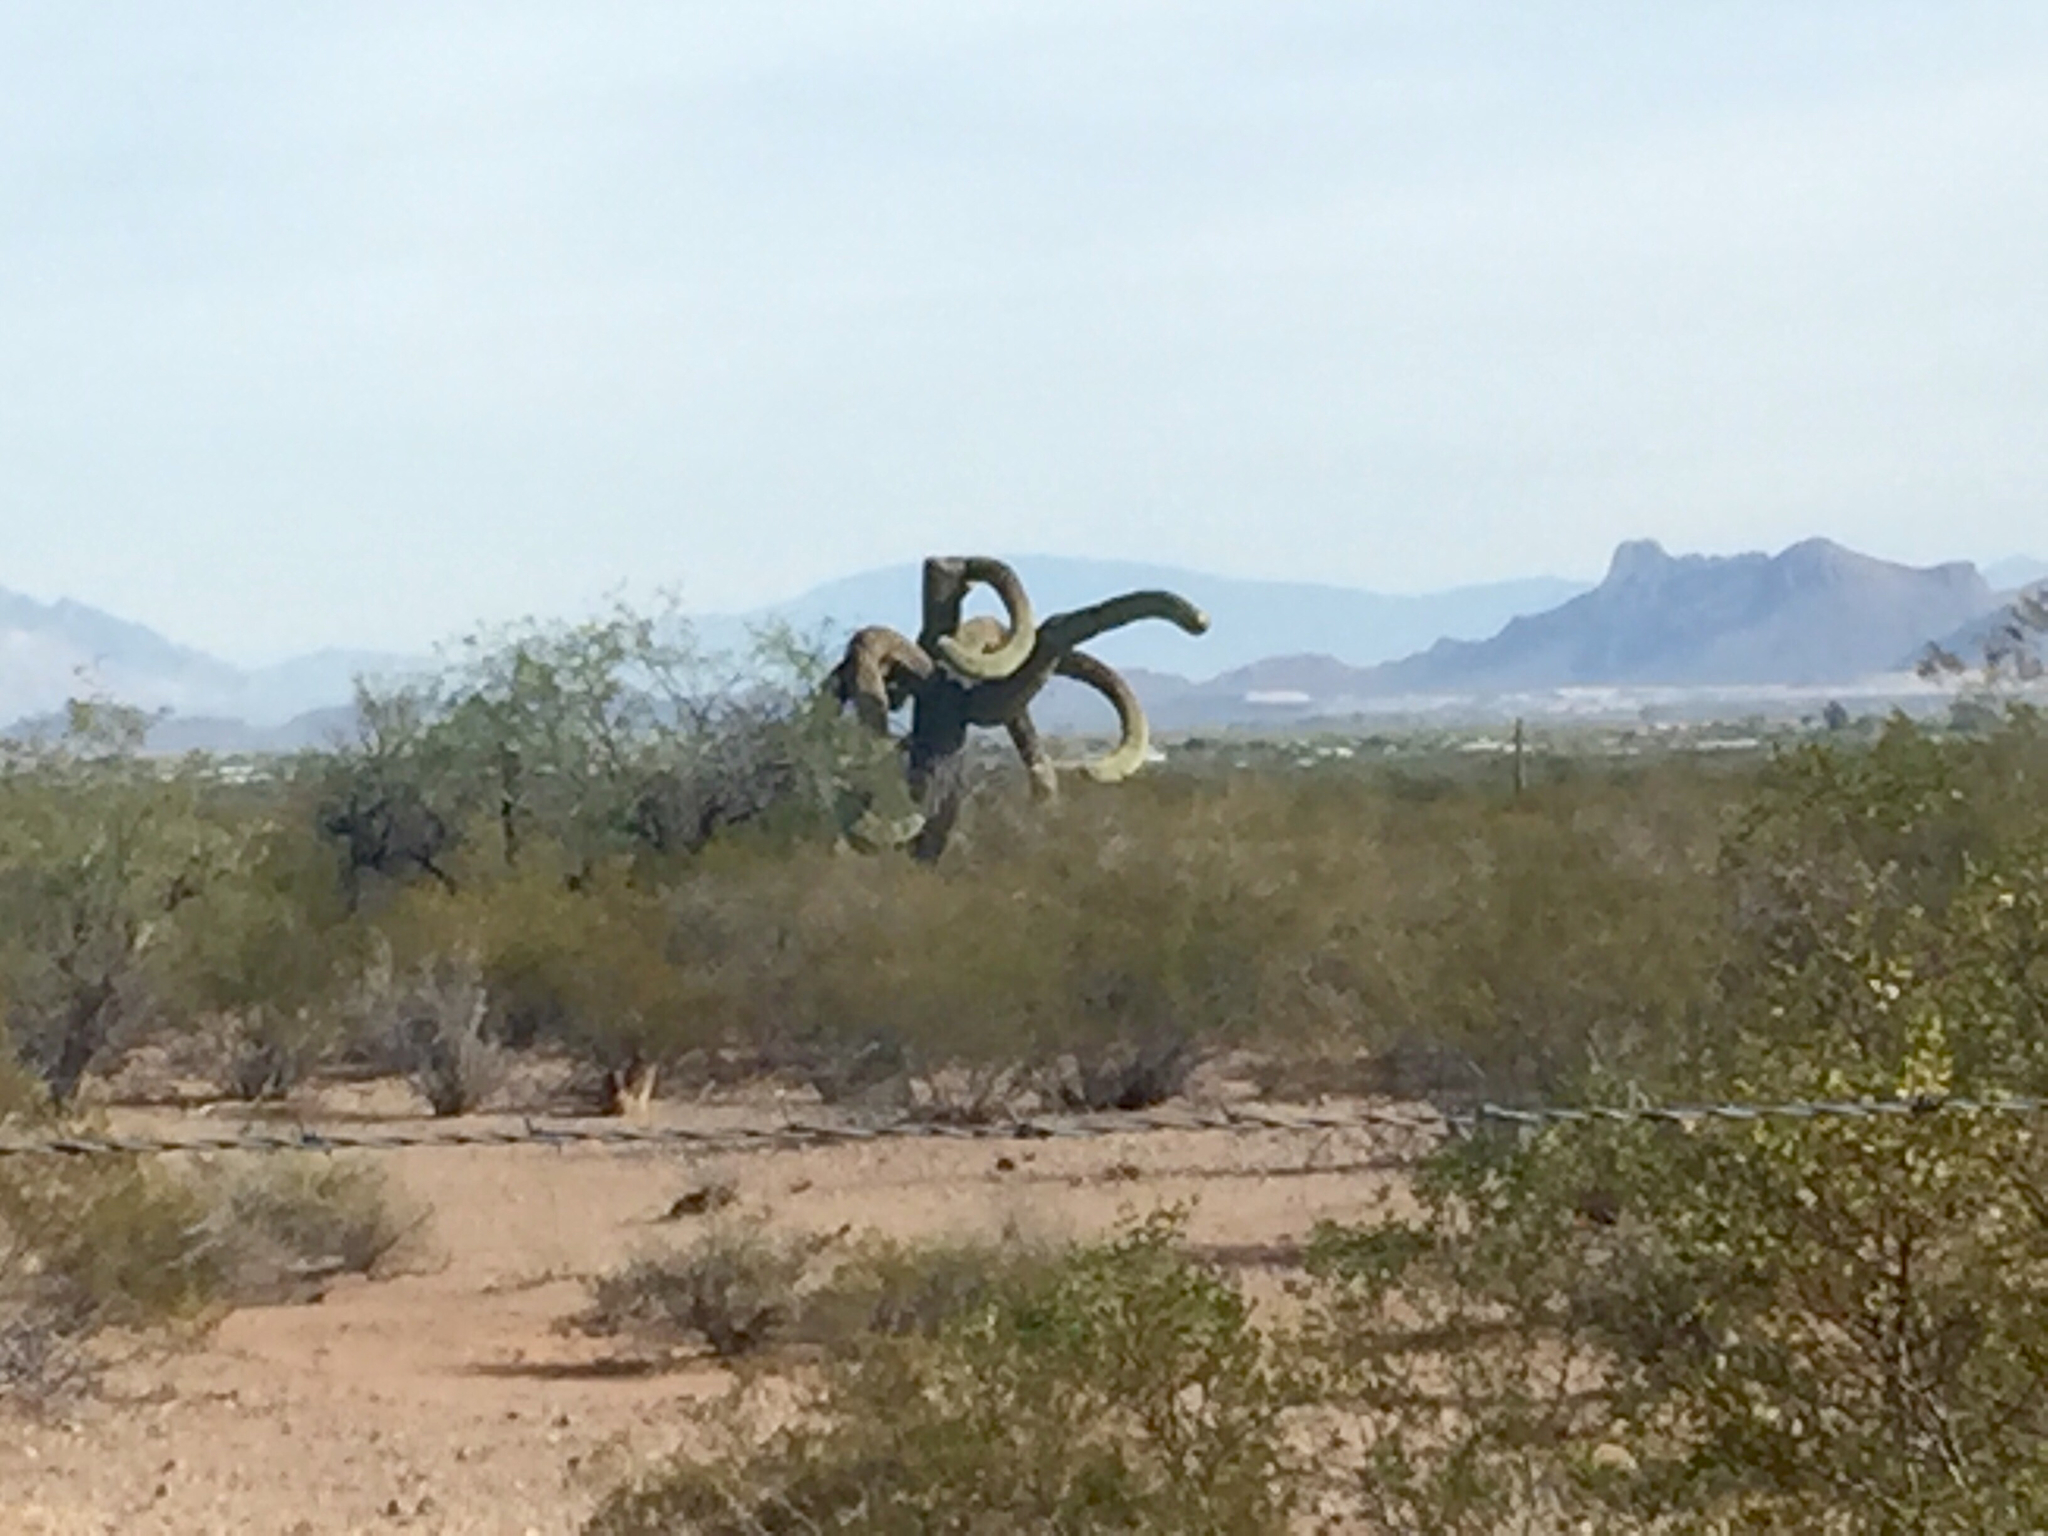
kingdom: Plantae
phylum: Tracheophyta
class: Magnoliopsida
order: Caryophyllales
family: Cactaceae
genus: Carnegiea
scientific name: Carnegiea gigantea
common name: Saguaro
